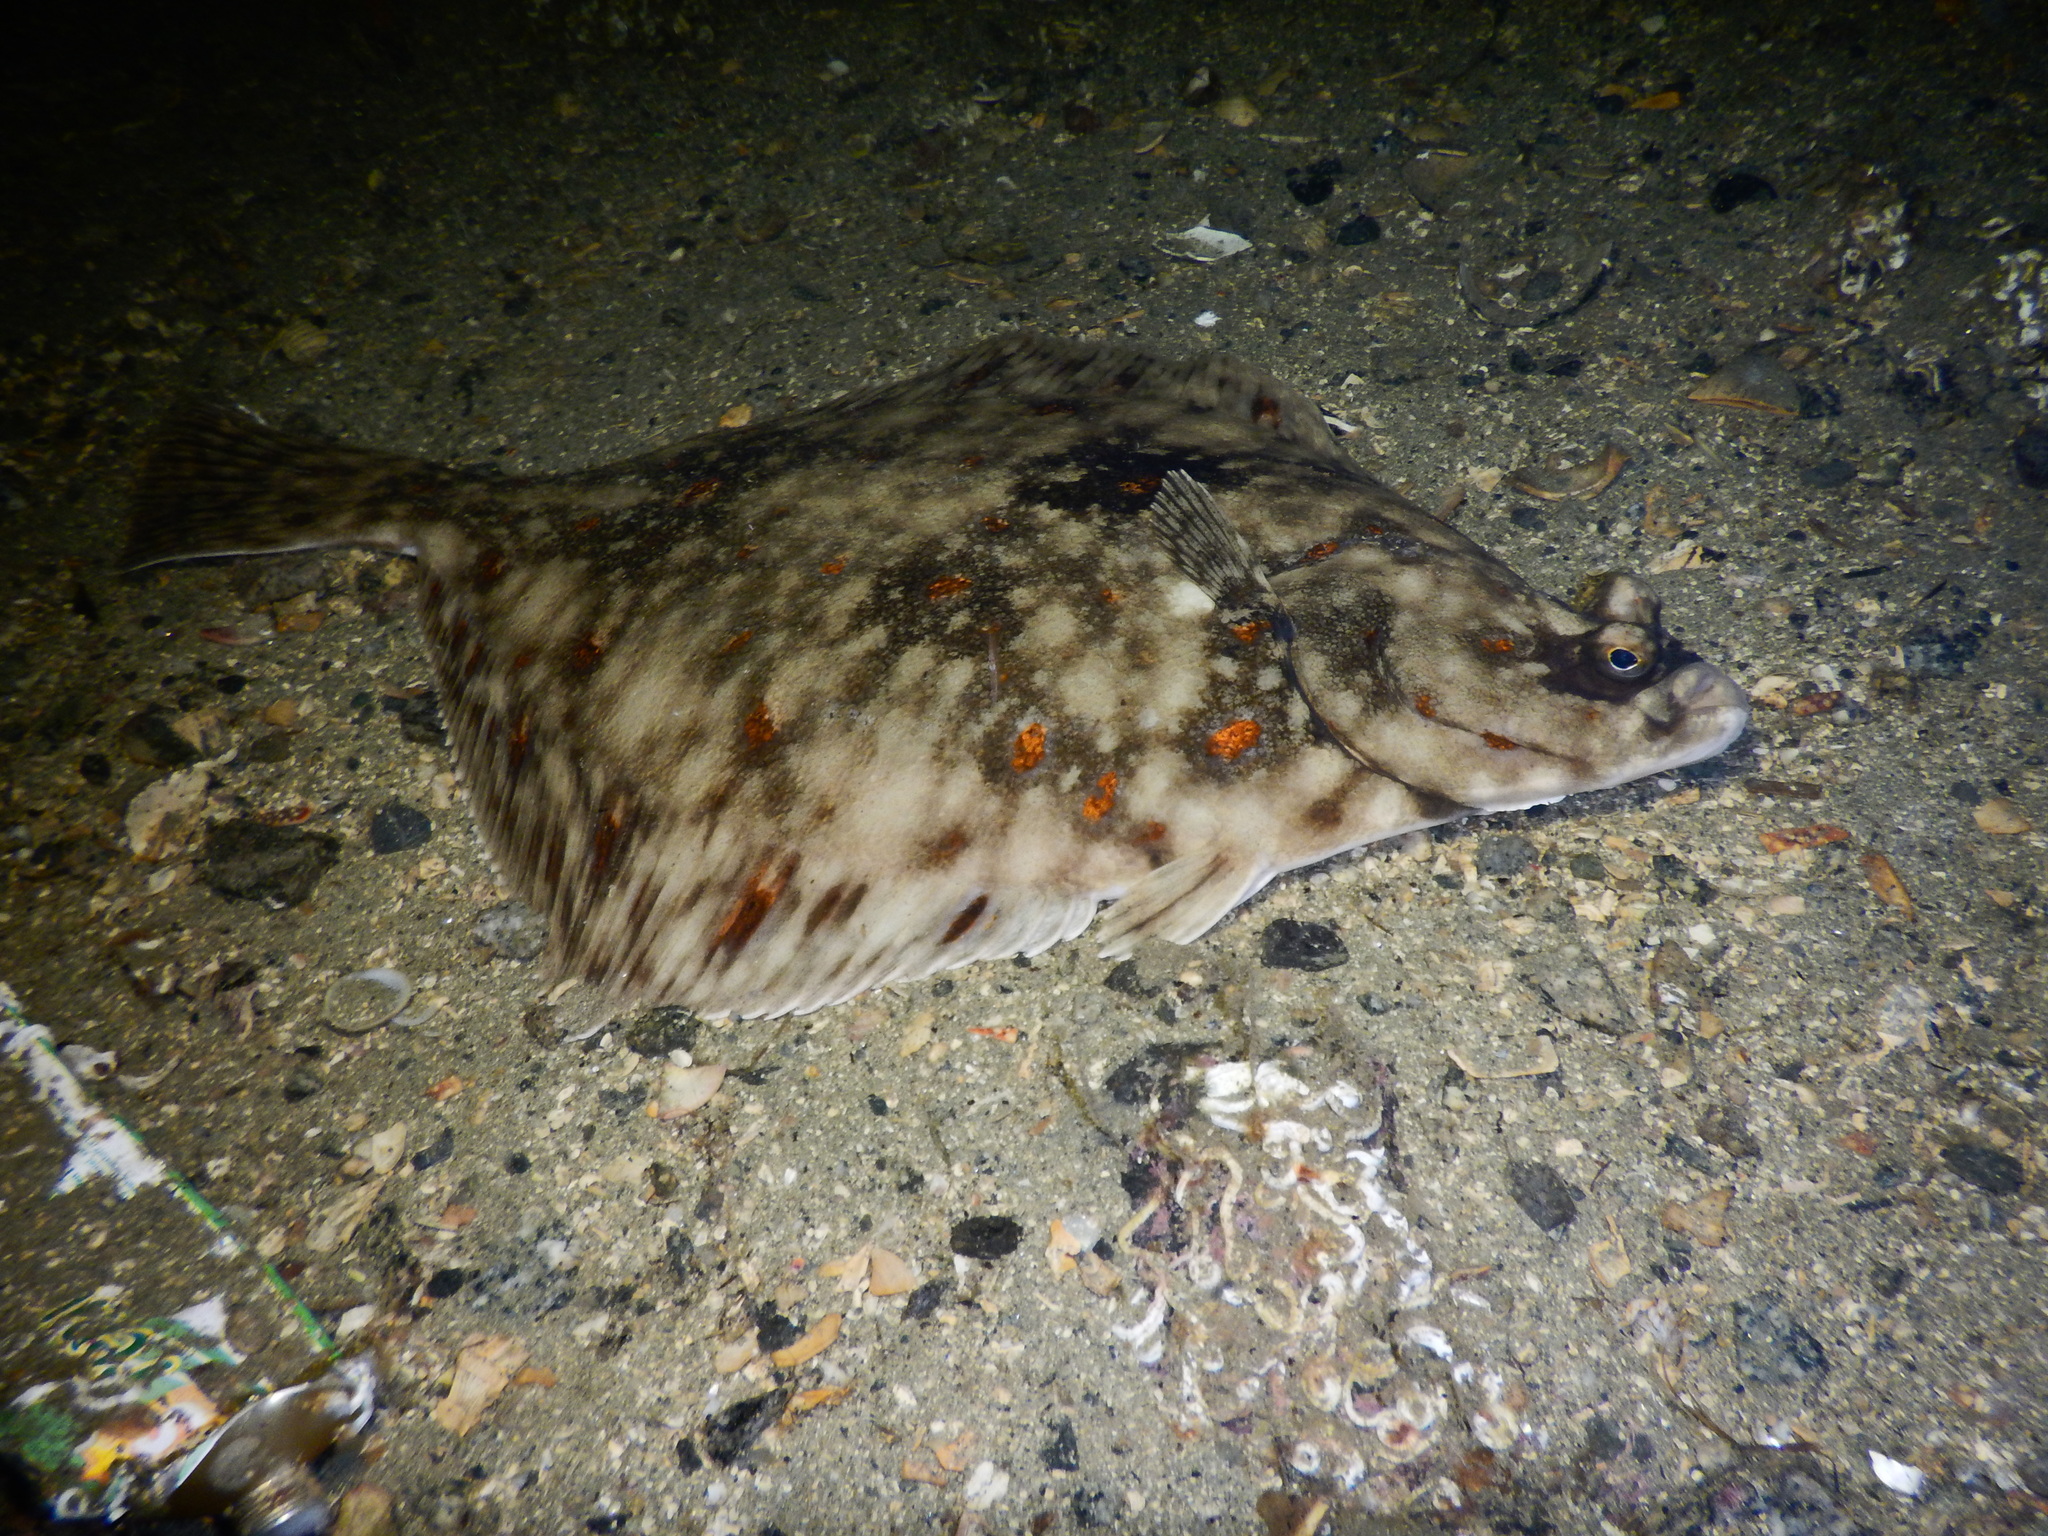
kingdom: Animalia
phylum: Chordata
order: Pleuronectiformes
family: Pleuronectidae
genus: Pleuronectes
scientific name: Pleuronectes platessa
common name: Plaice
